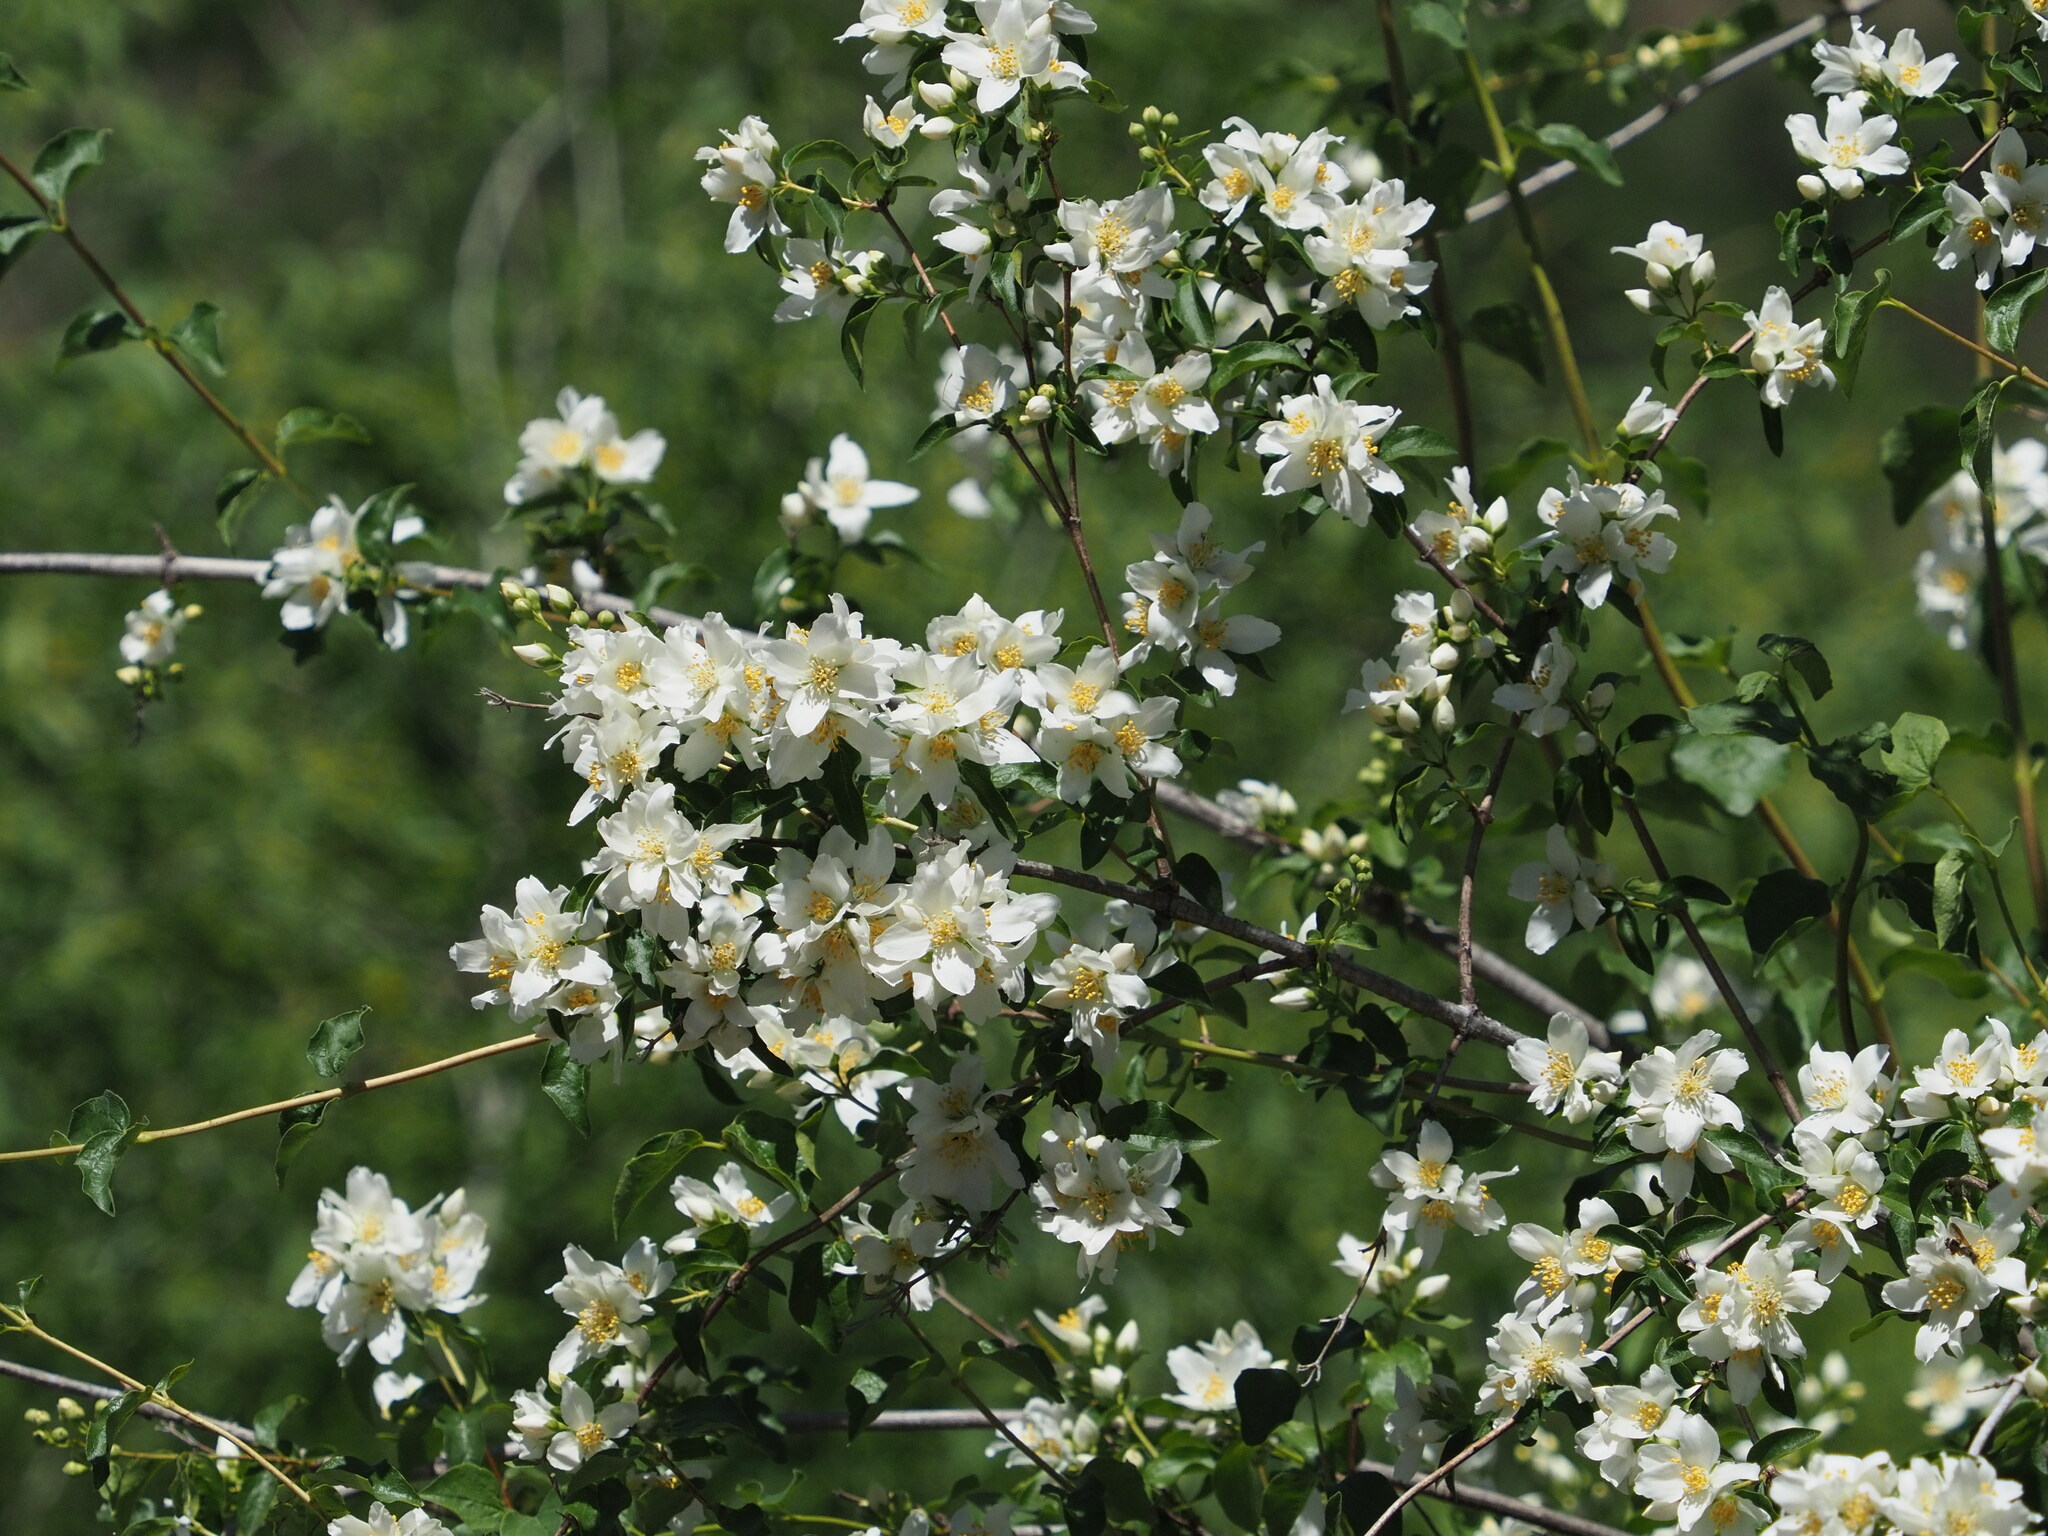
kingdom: Plantae
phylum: Tracheophyta
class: Magnoliopsida
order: Cornales
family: Hydrangeaceae
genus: Philadelphus
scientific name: Philadelphus lewisii
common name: Lewis's mock orange
